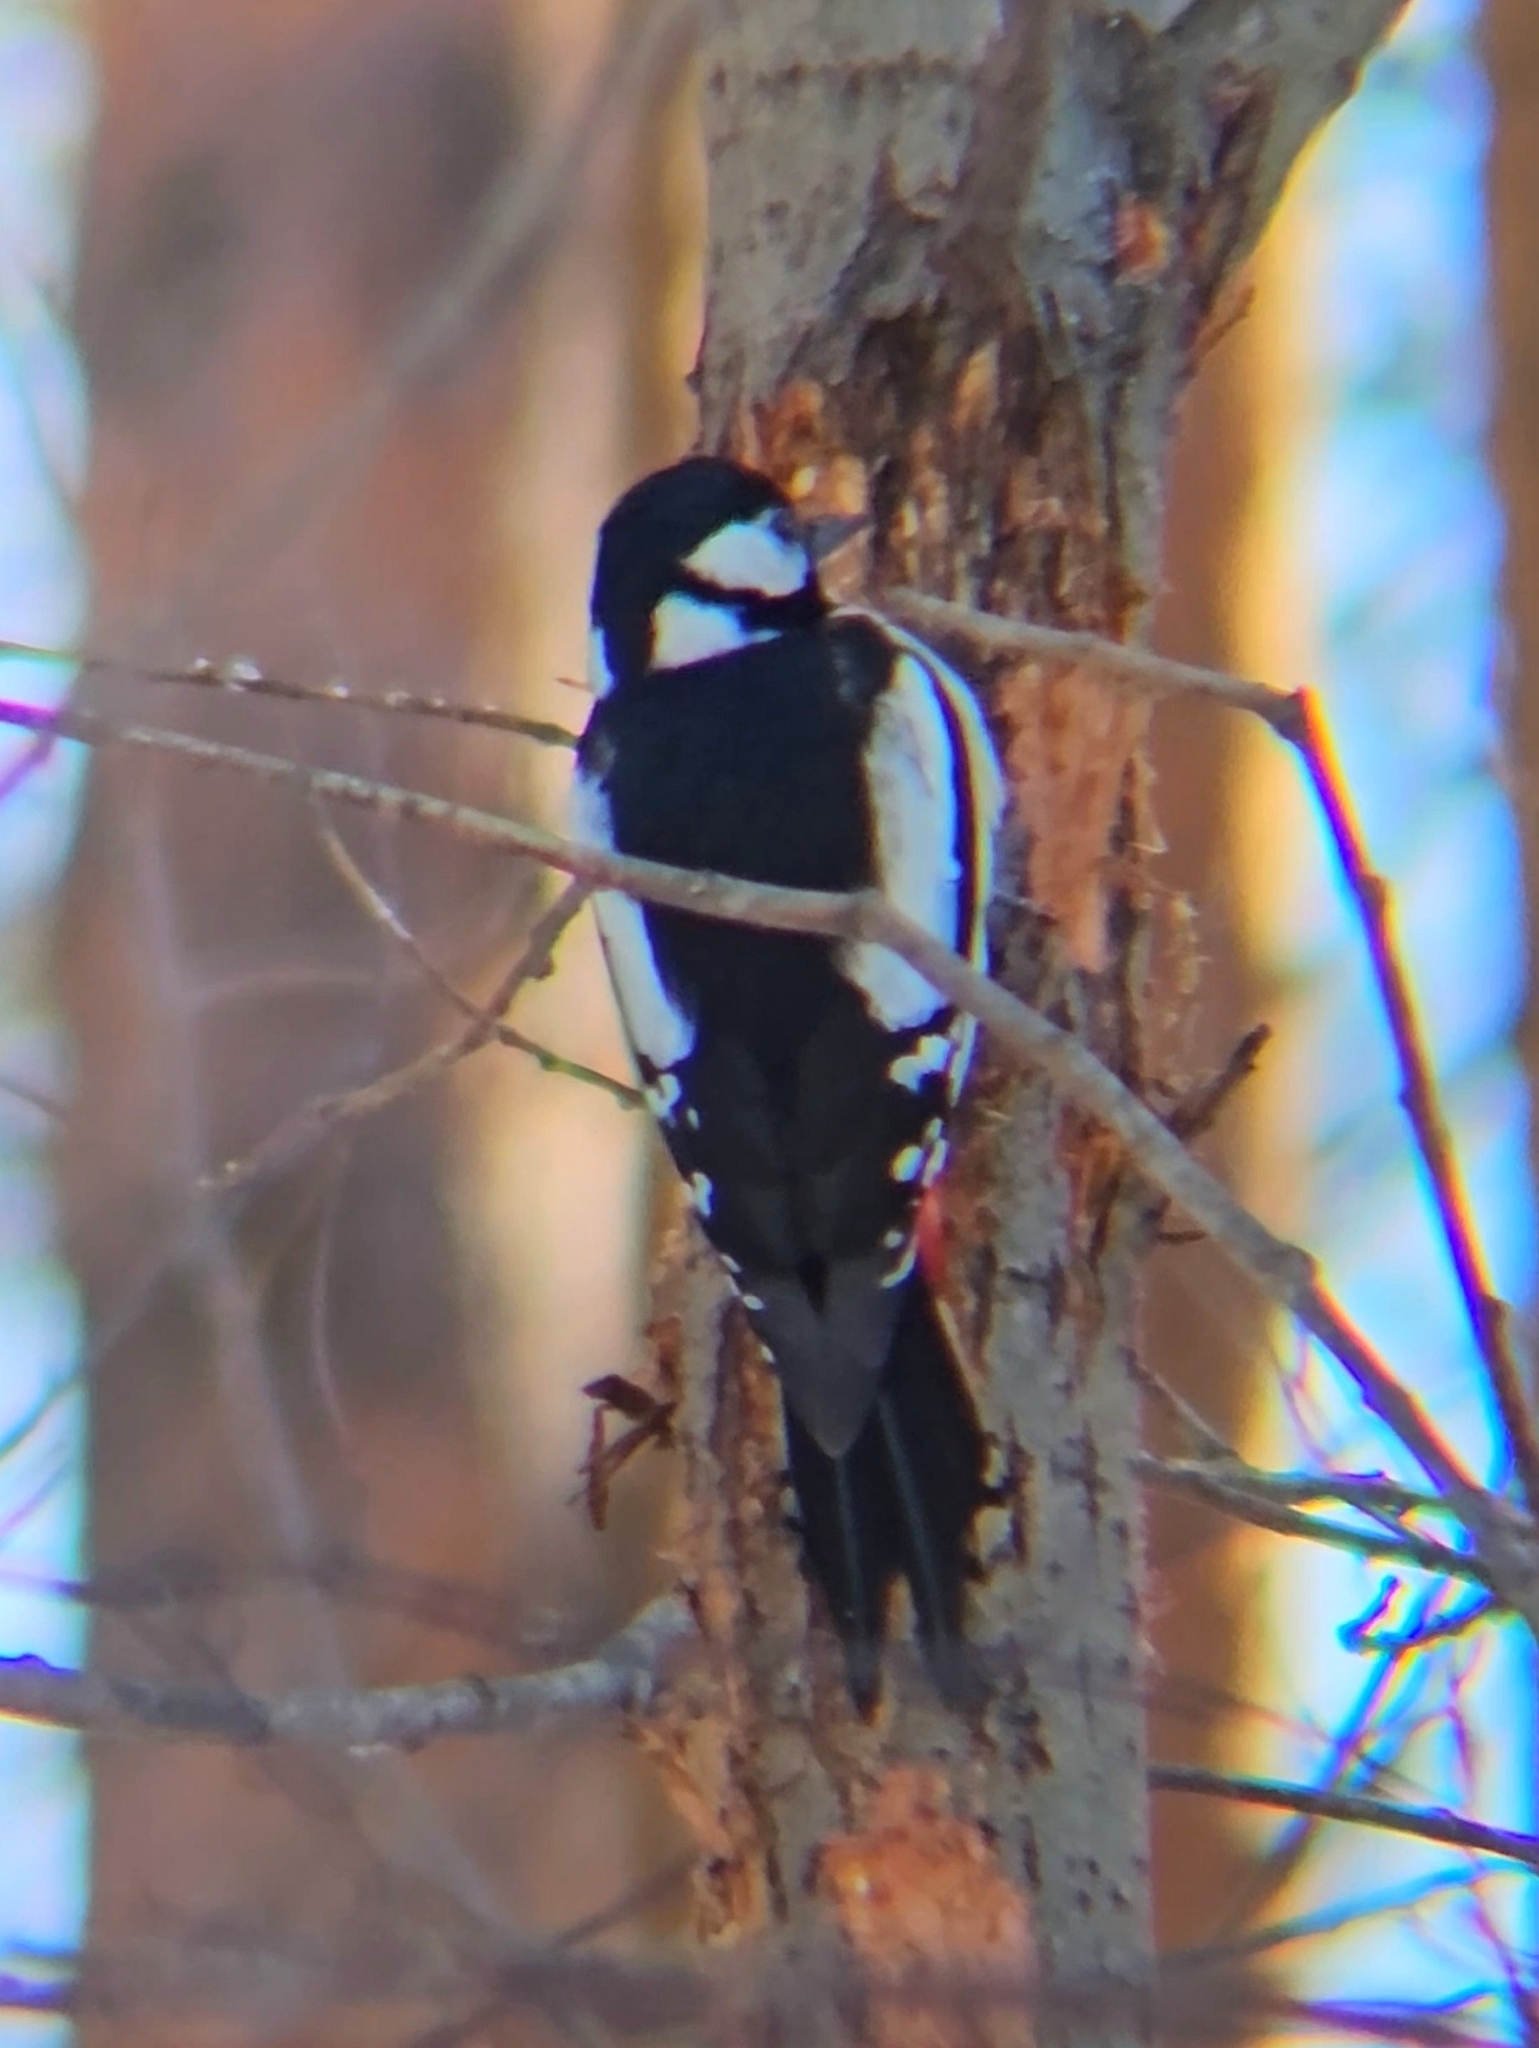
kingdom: Animalia
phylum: Chordata
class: Aves
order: Piciformes
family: Picidae
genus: Dendrocopos
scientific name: Dendrocopos major
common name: Great spotted woodpecker
